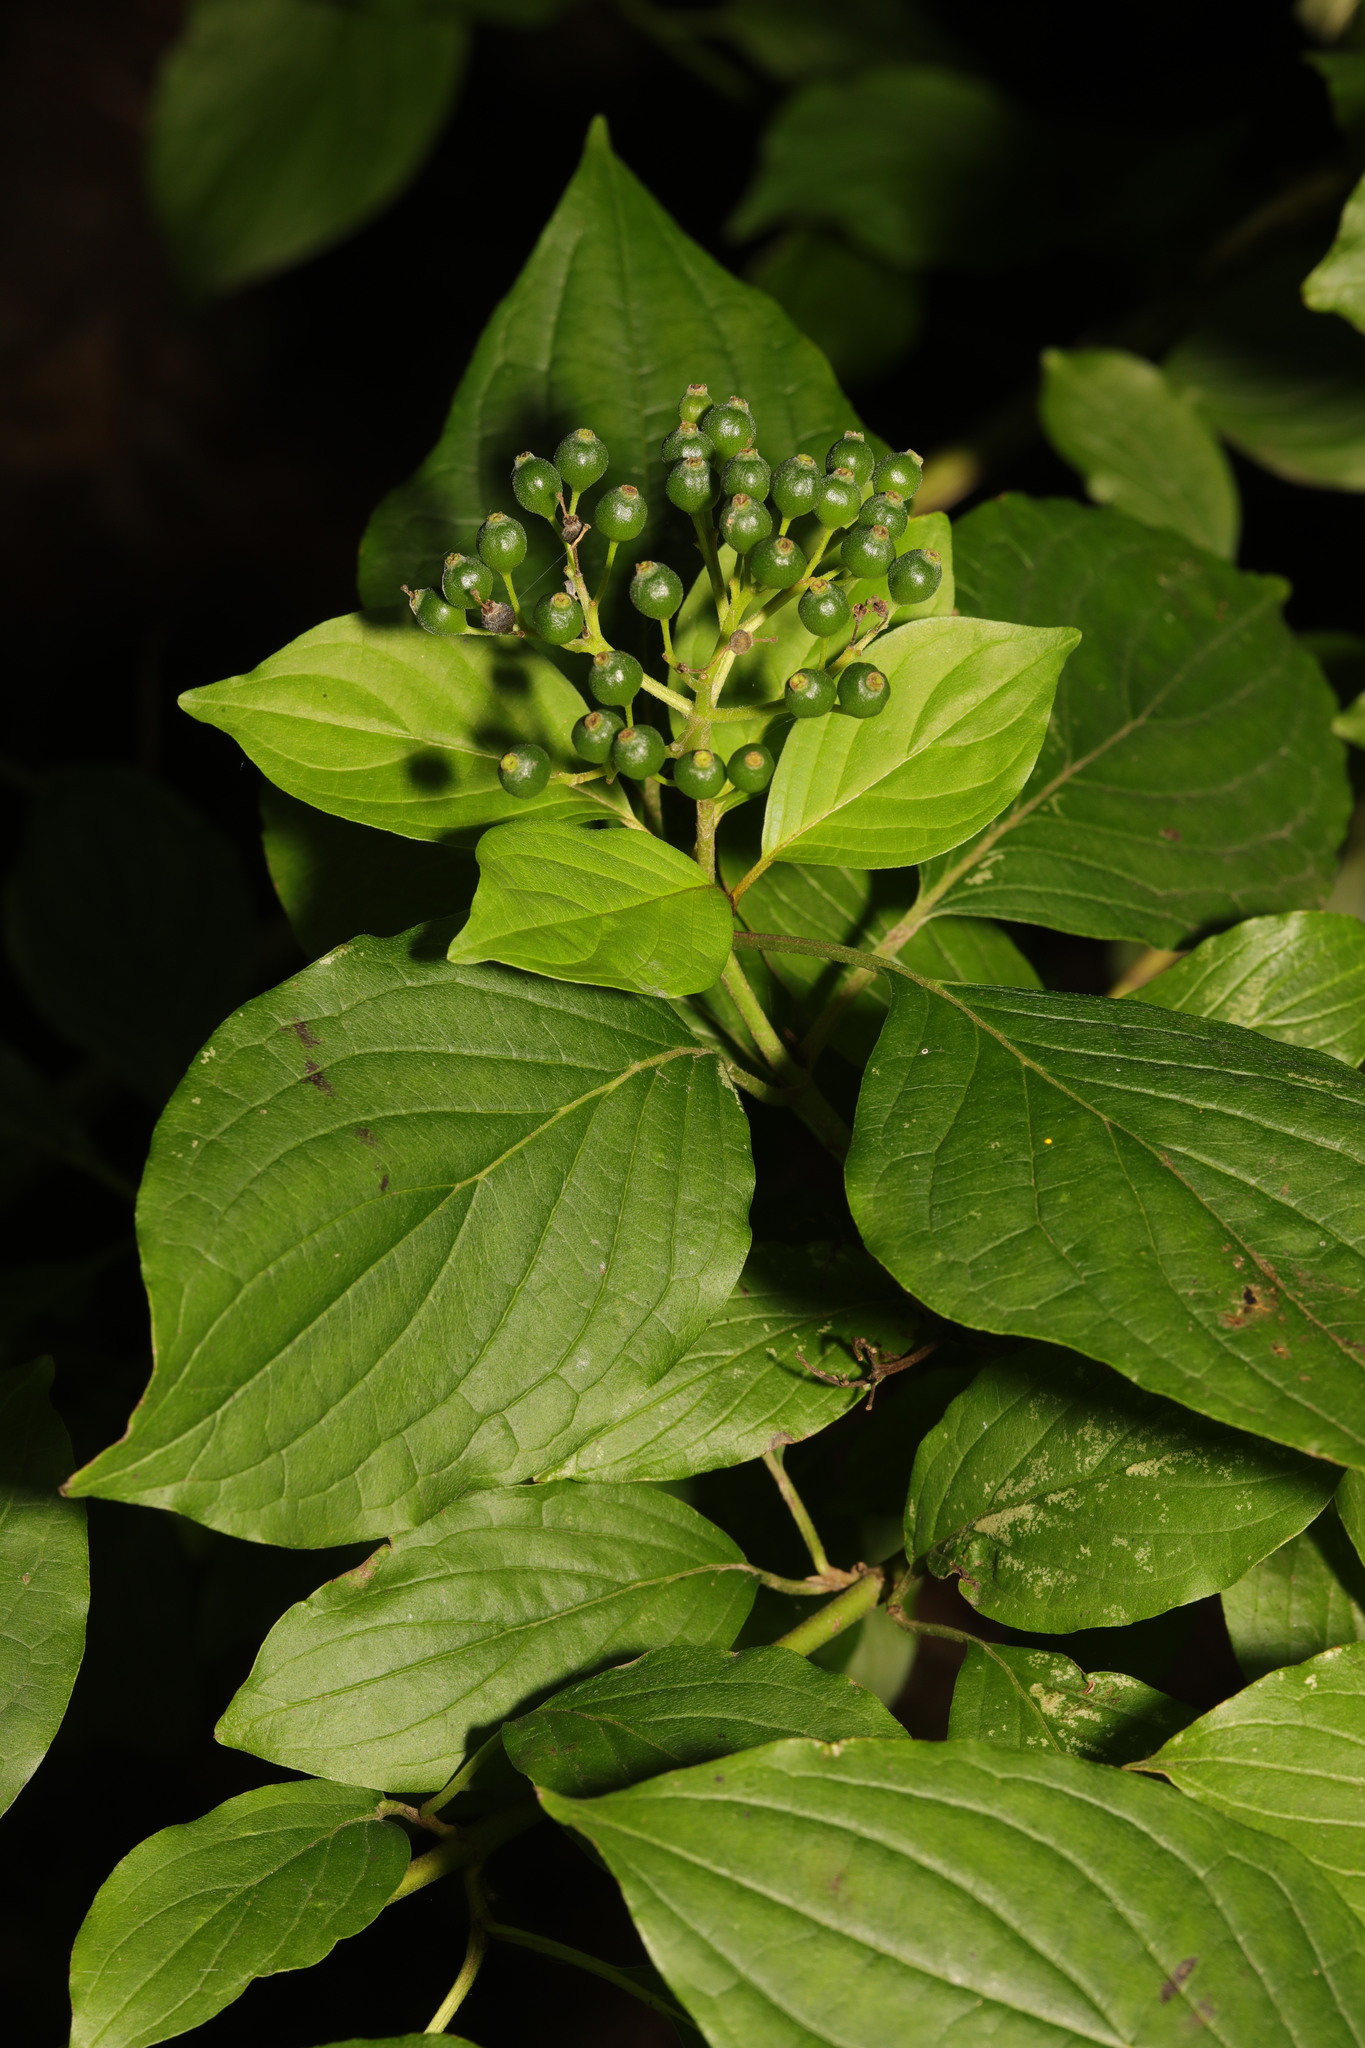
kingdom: Plantae
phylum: Tracheophyta
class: Magnoliopsida
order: Cornales
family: Cornaceae
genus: Cornus
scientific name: Cornus sanguinea
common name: Dogwood
